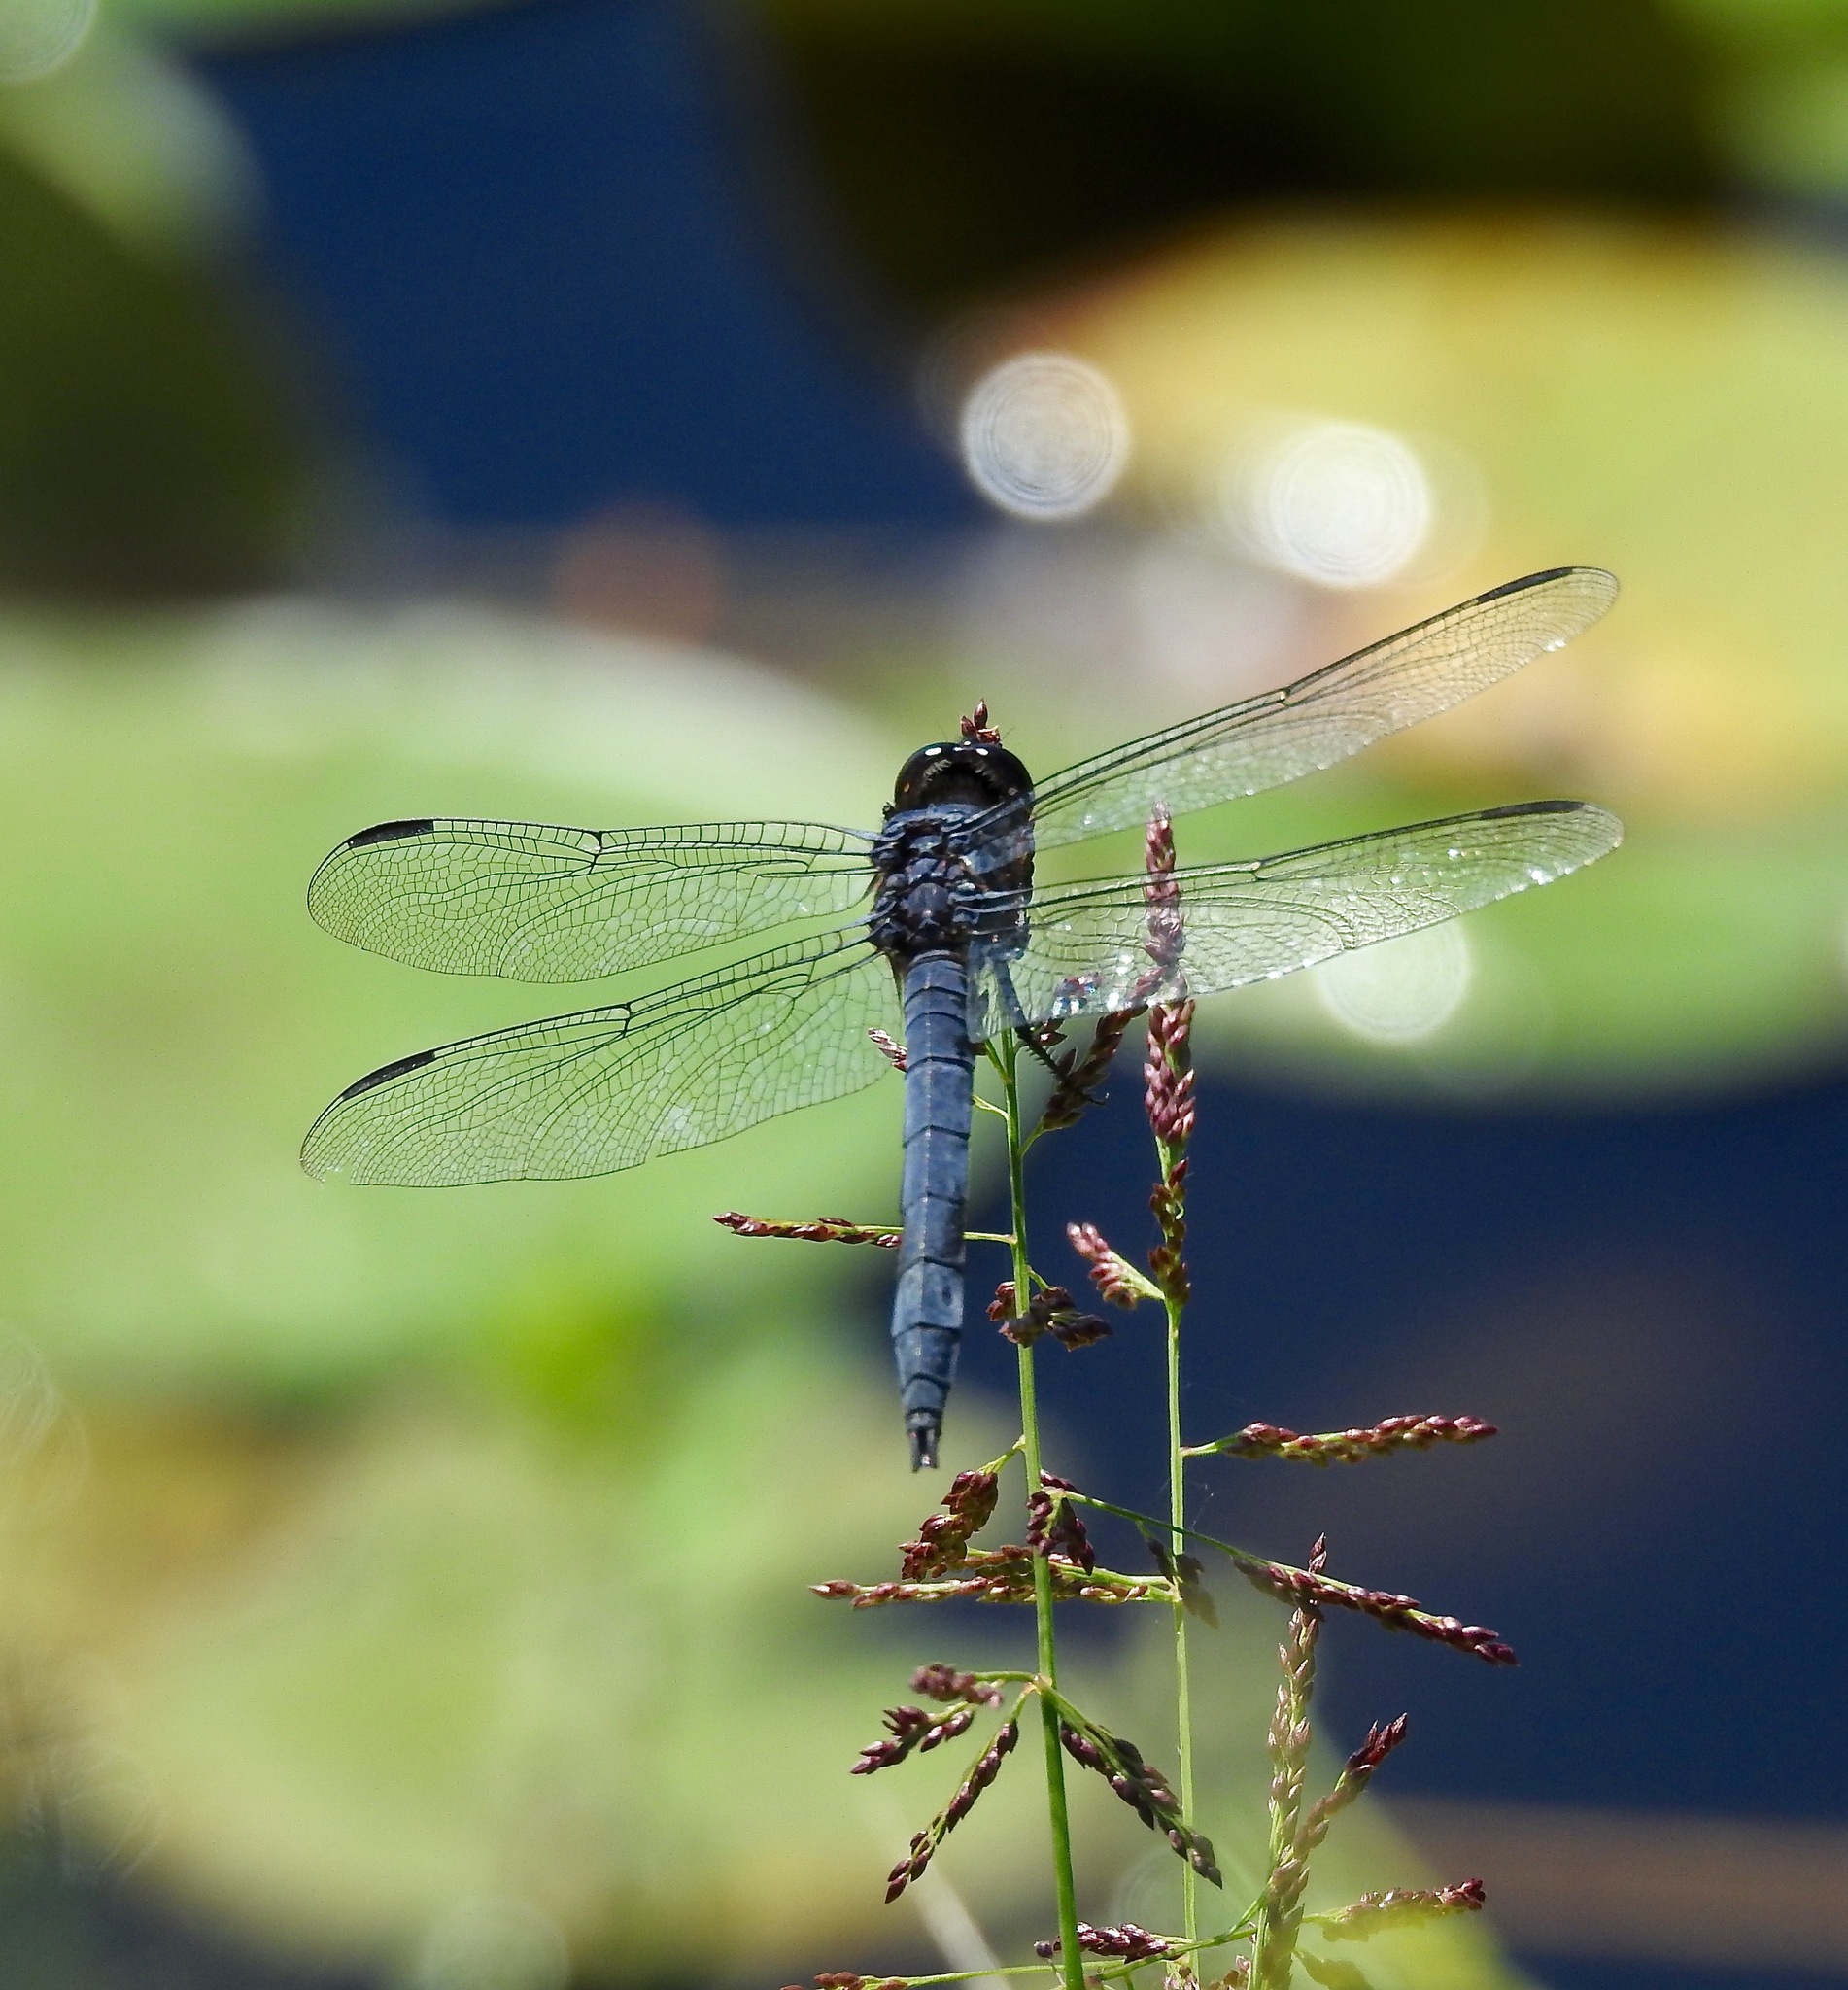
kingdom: Animalia
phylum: Arthropoda
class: Insecta
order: Odonata
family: Libellulidae
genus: Libellula
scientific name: Libellula incesta
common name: Slaty skimmer
